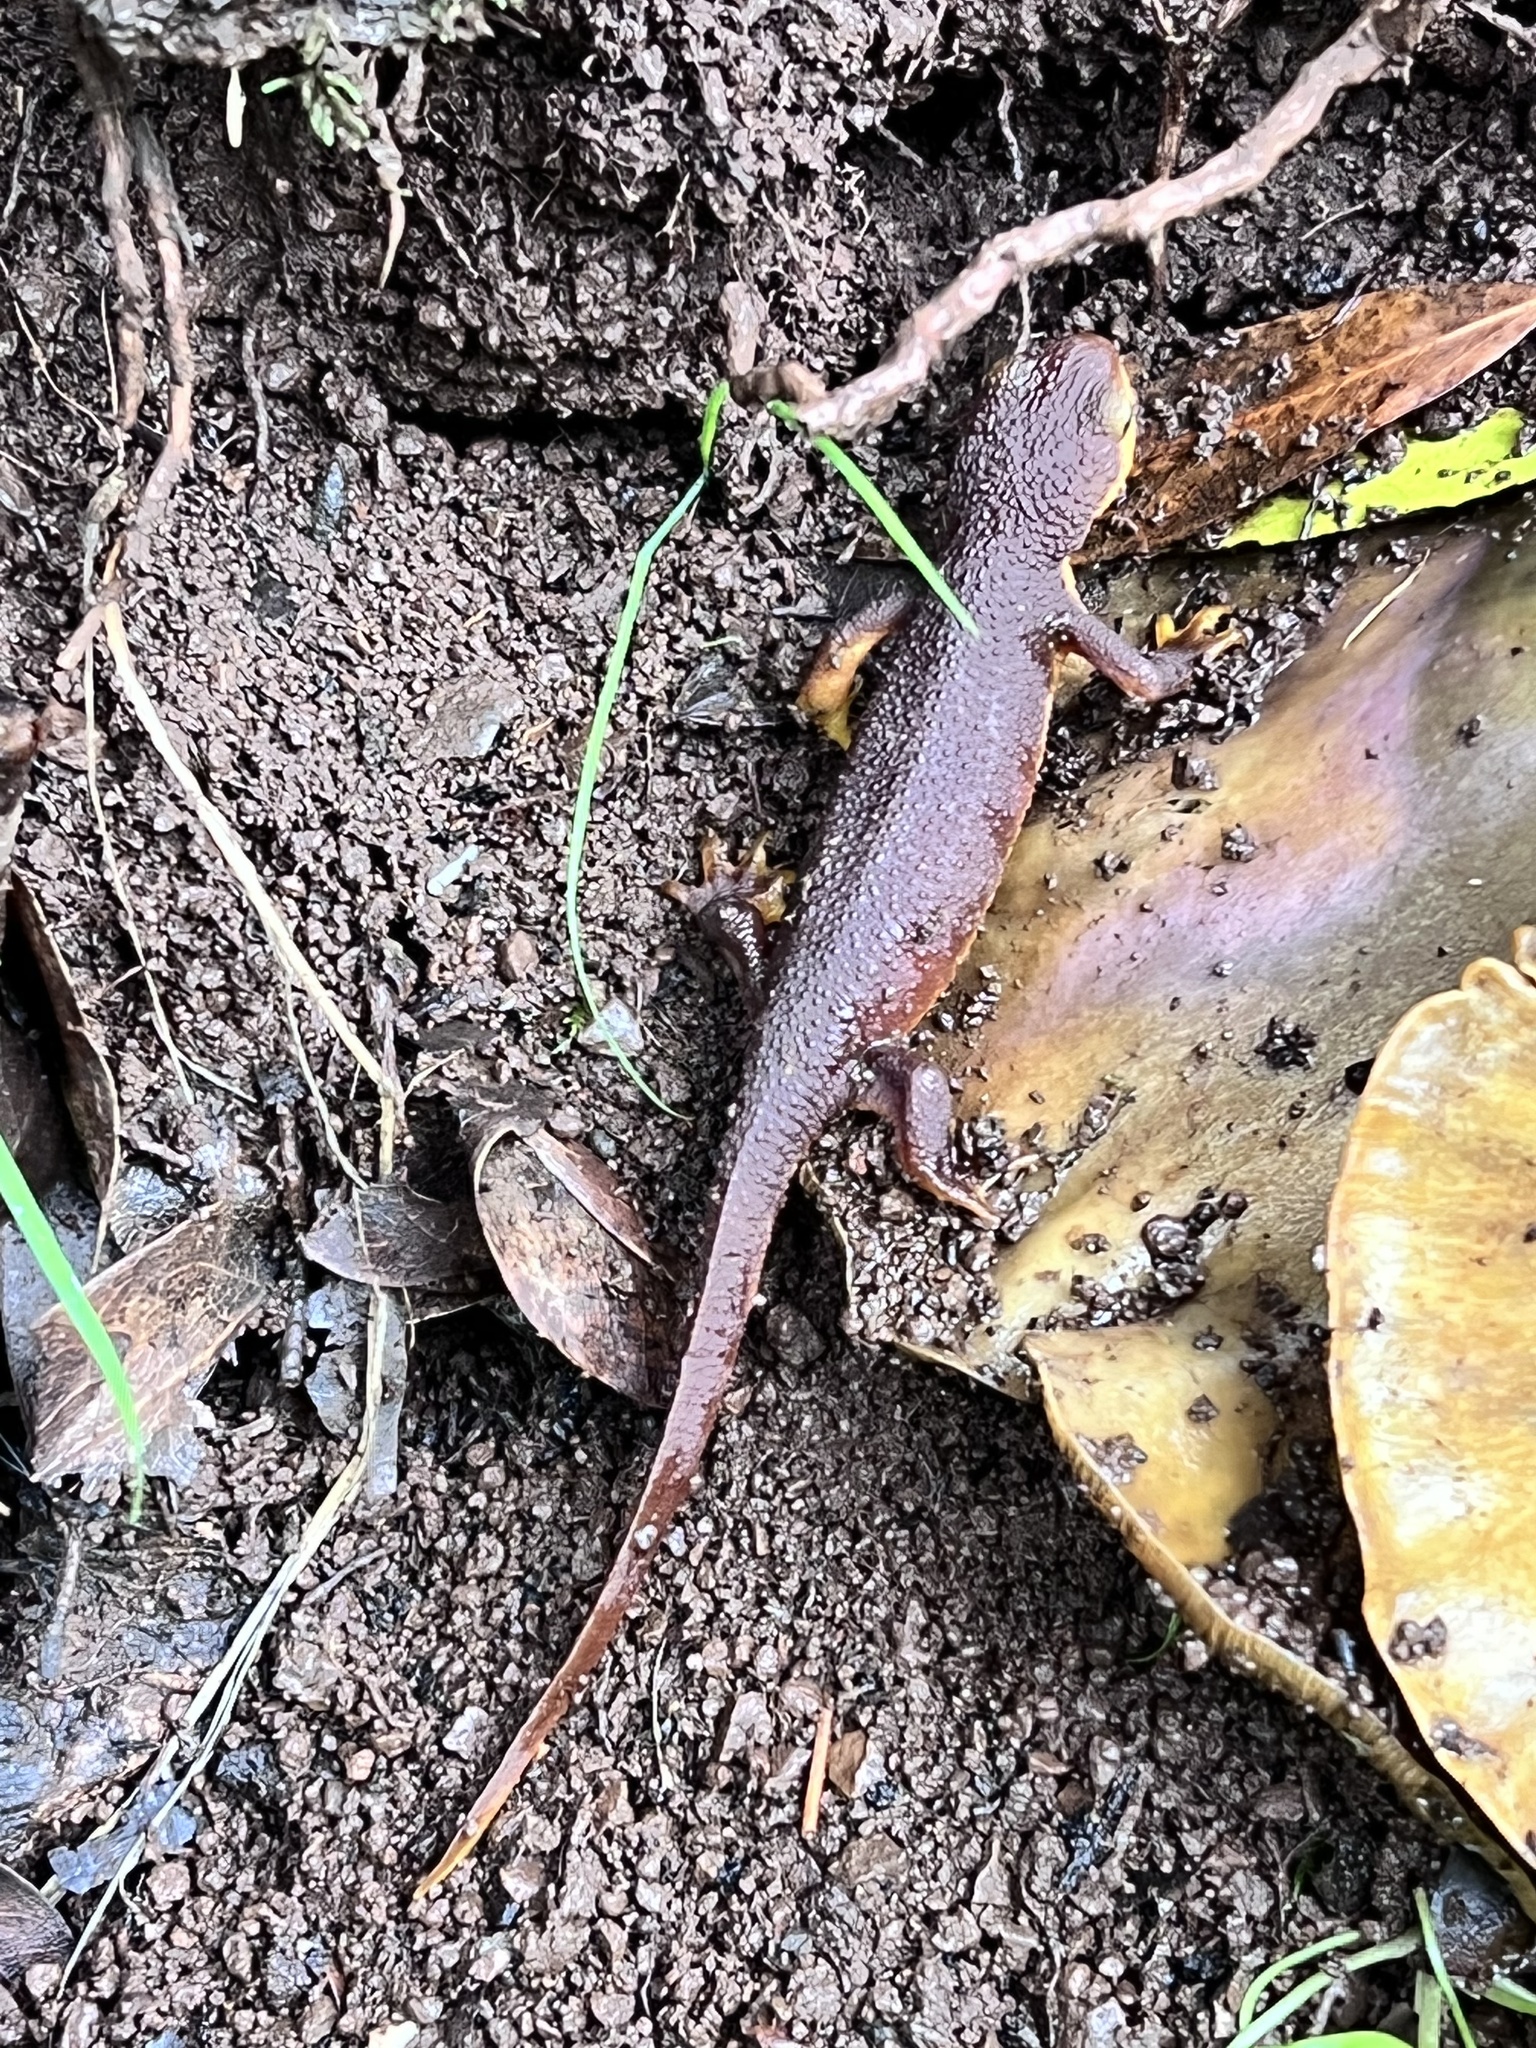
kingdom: Animalia
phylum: Chordata
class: Amphibia
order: Caudata
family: Salamandridae
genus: Taricha
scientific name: Taricha torosa
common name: California newt
